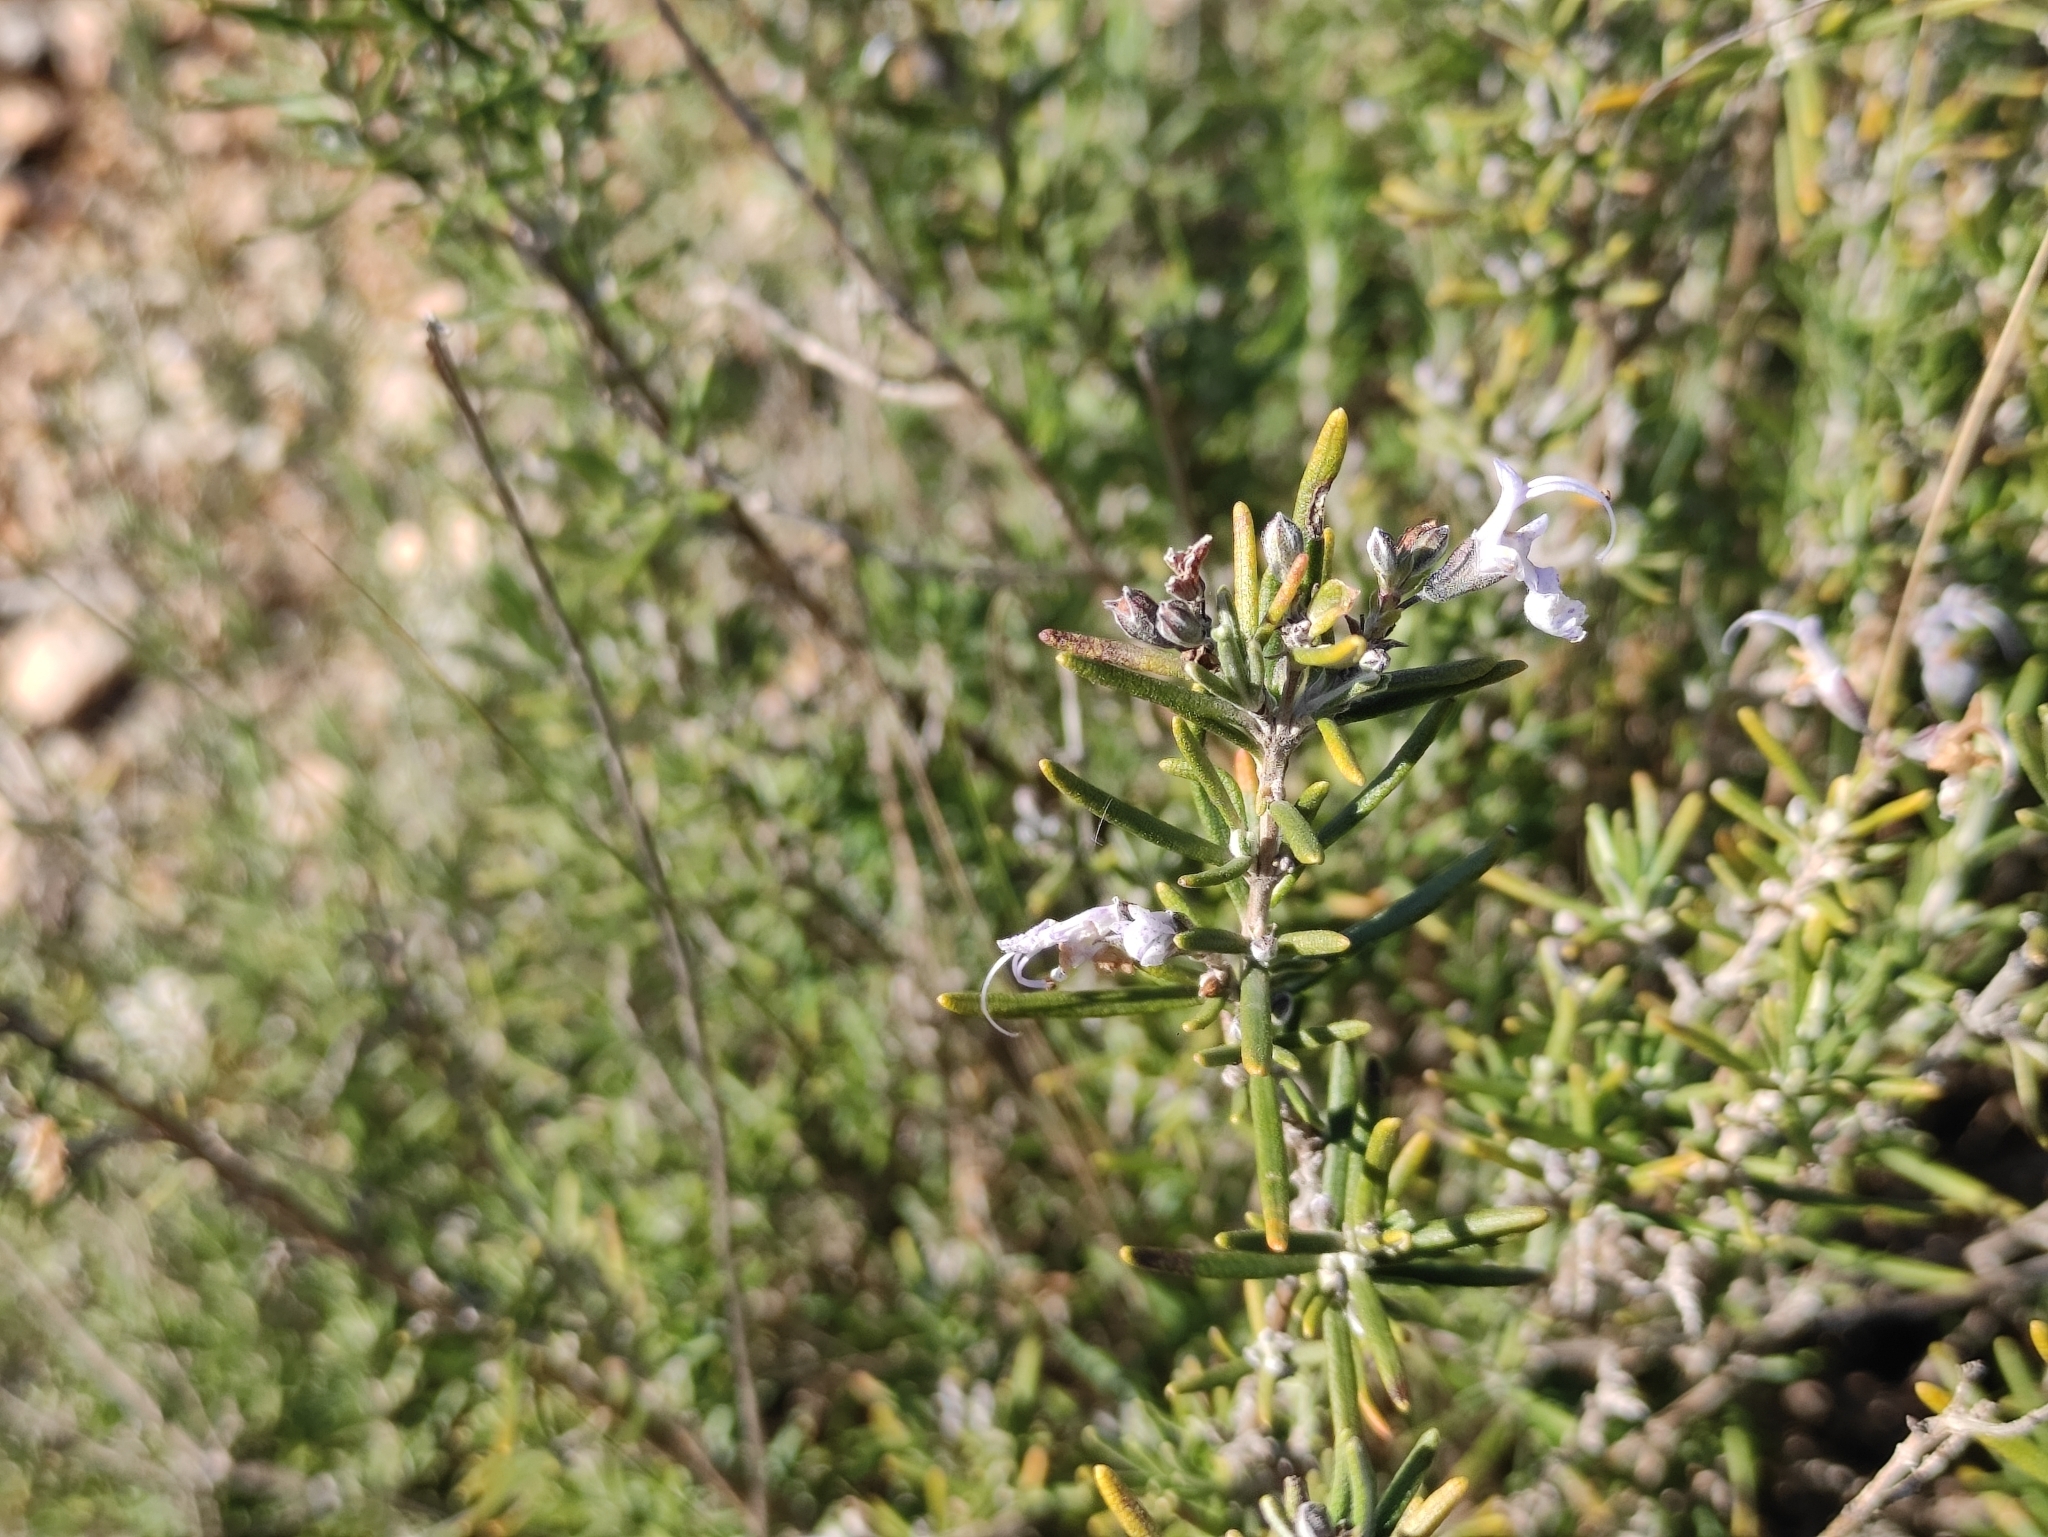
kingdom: Plantae
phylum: Tracheophyta
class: Magnoliopsida
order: Lamiales
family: Lamiaceae
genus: Salvia
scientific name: Salvia rosmarinus
